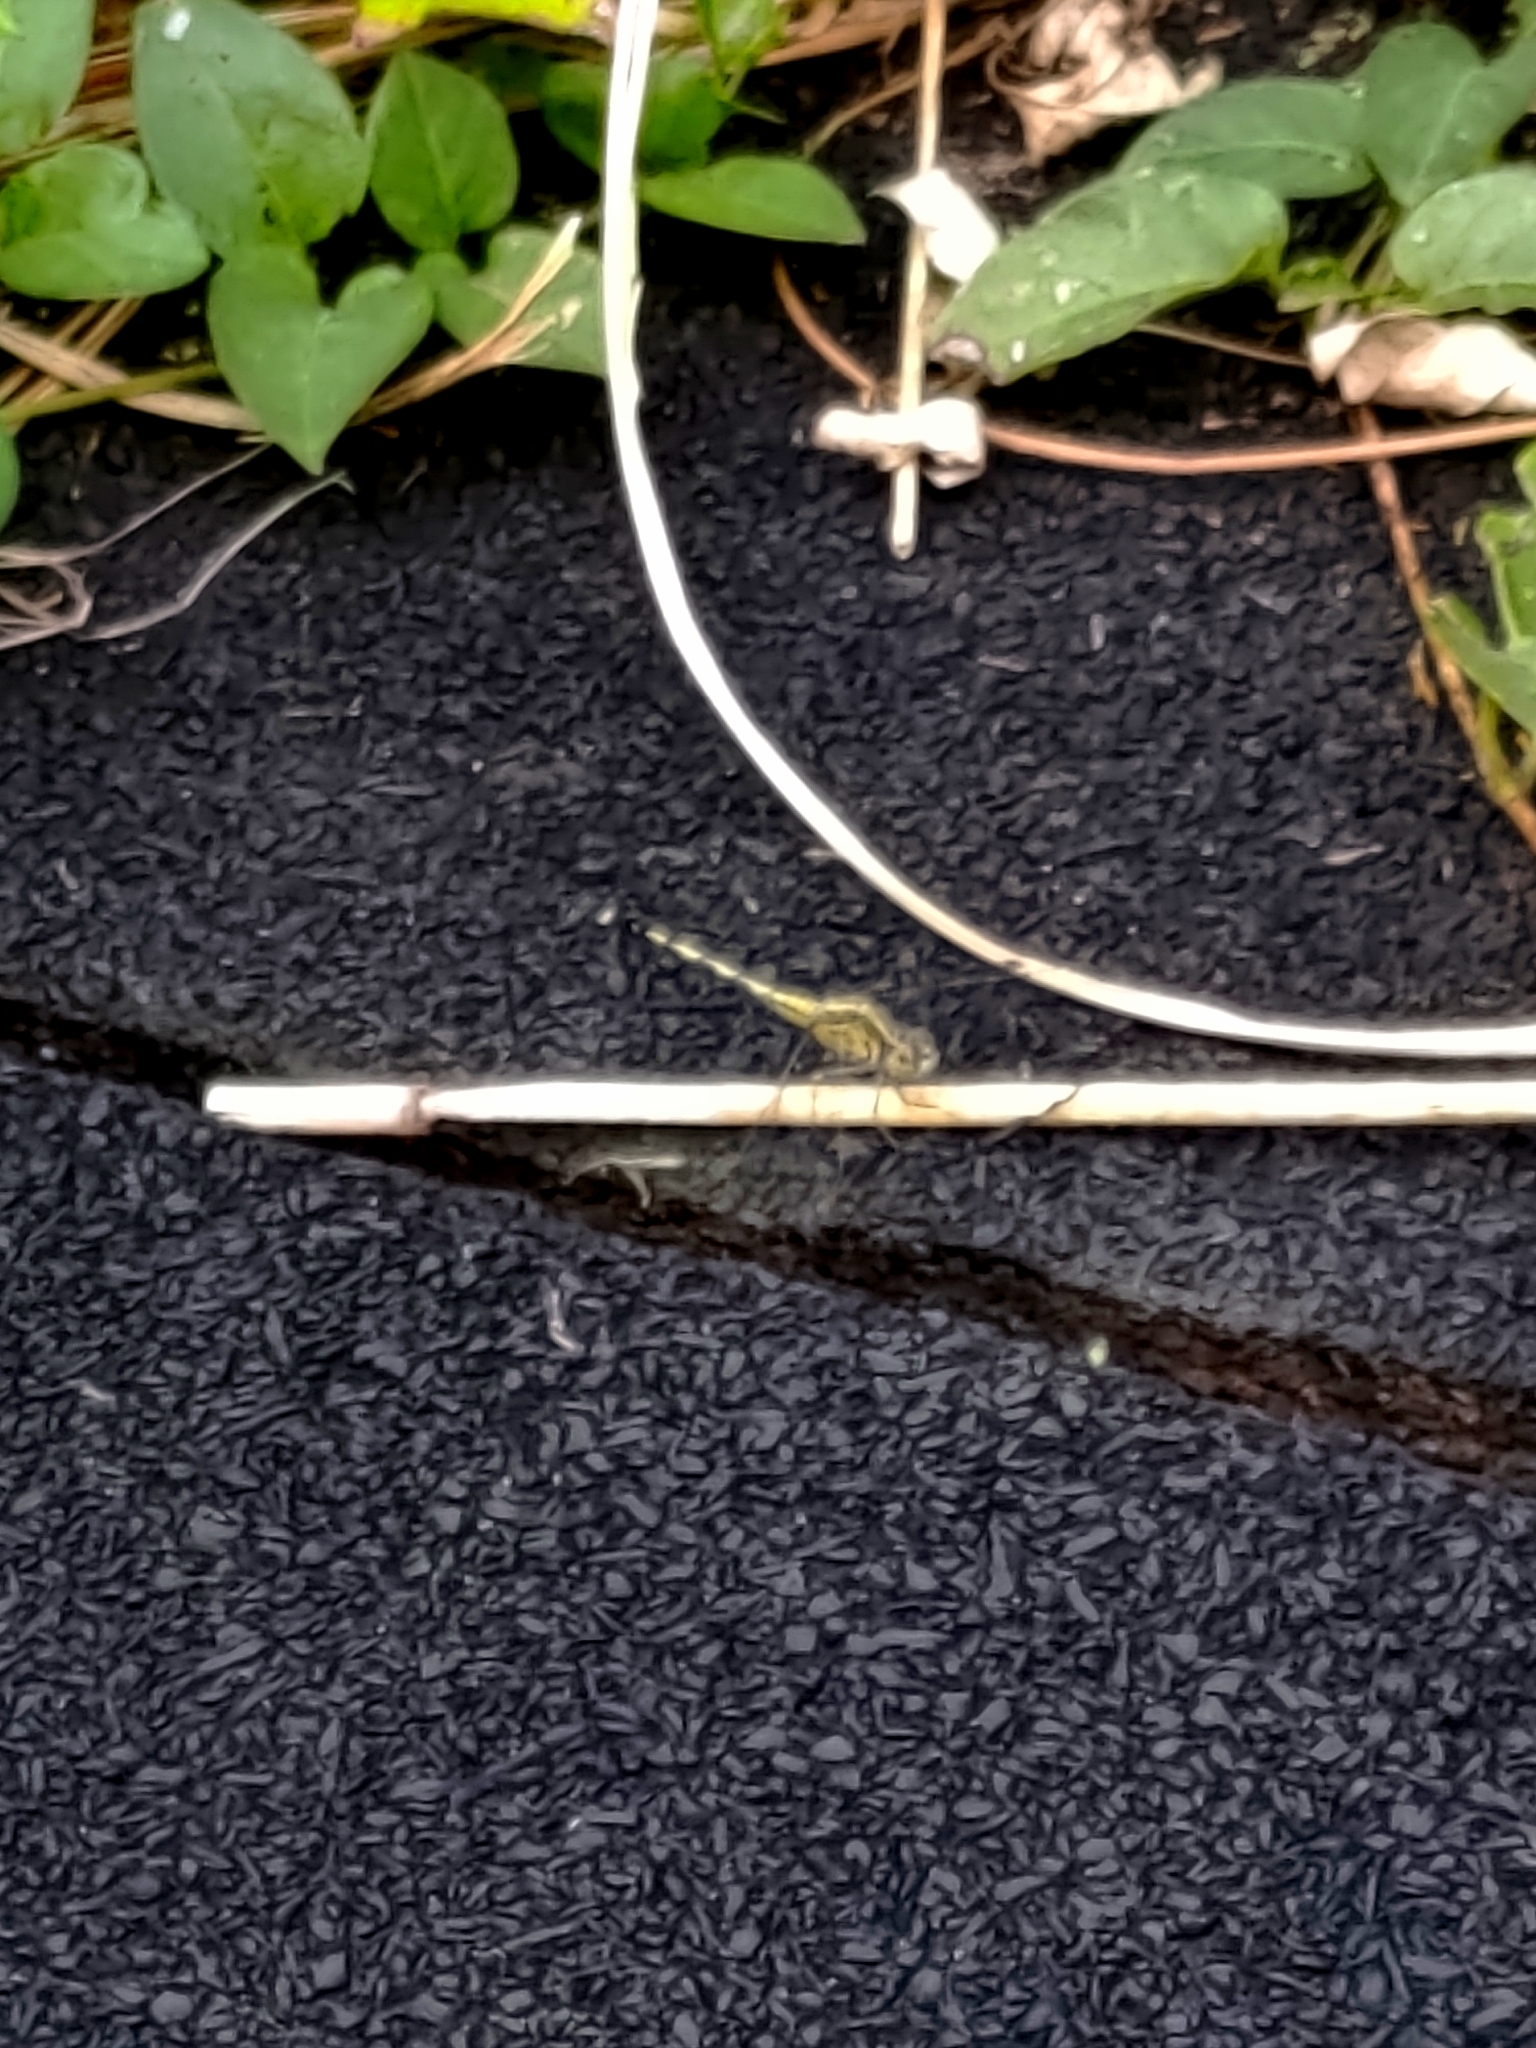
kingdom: Animalia
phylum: Arthropoda
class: Insecta
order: Odonata
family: Libellulidae
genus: Diplacodes
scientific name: Diplacodes trivialis
